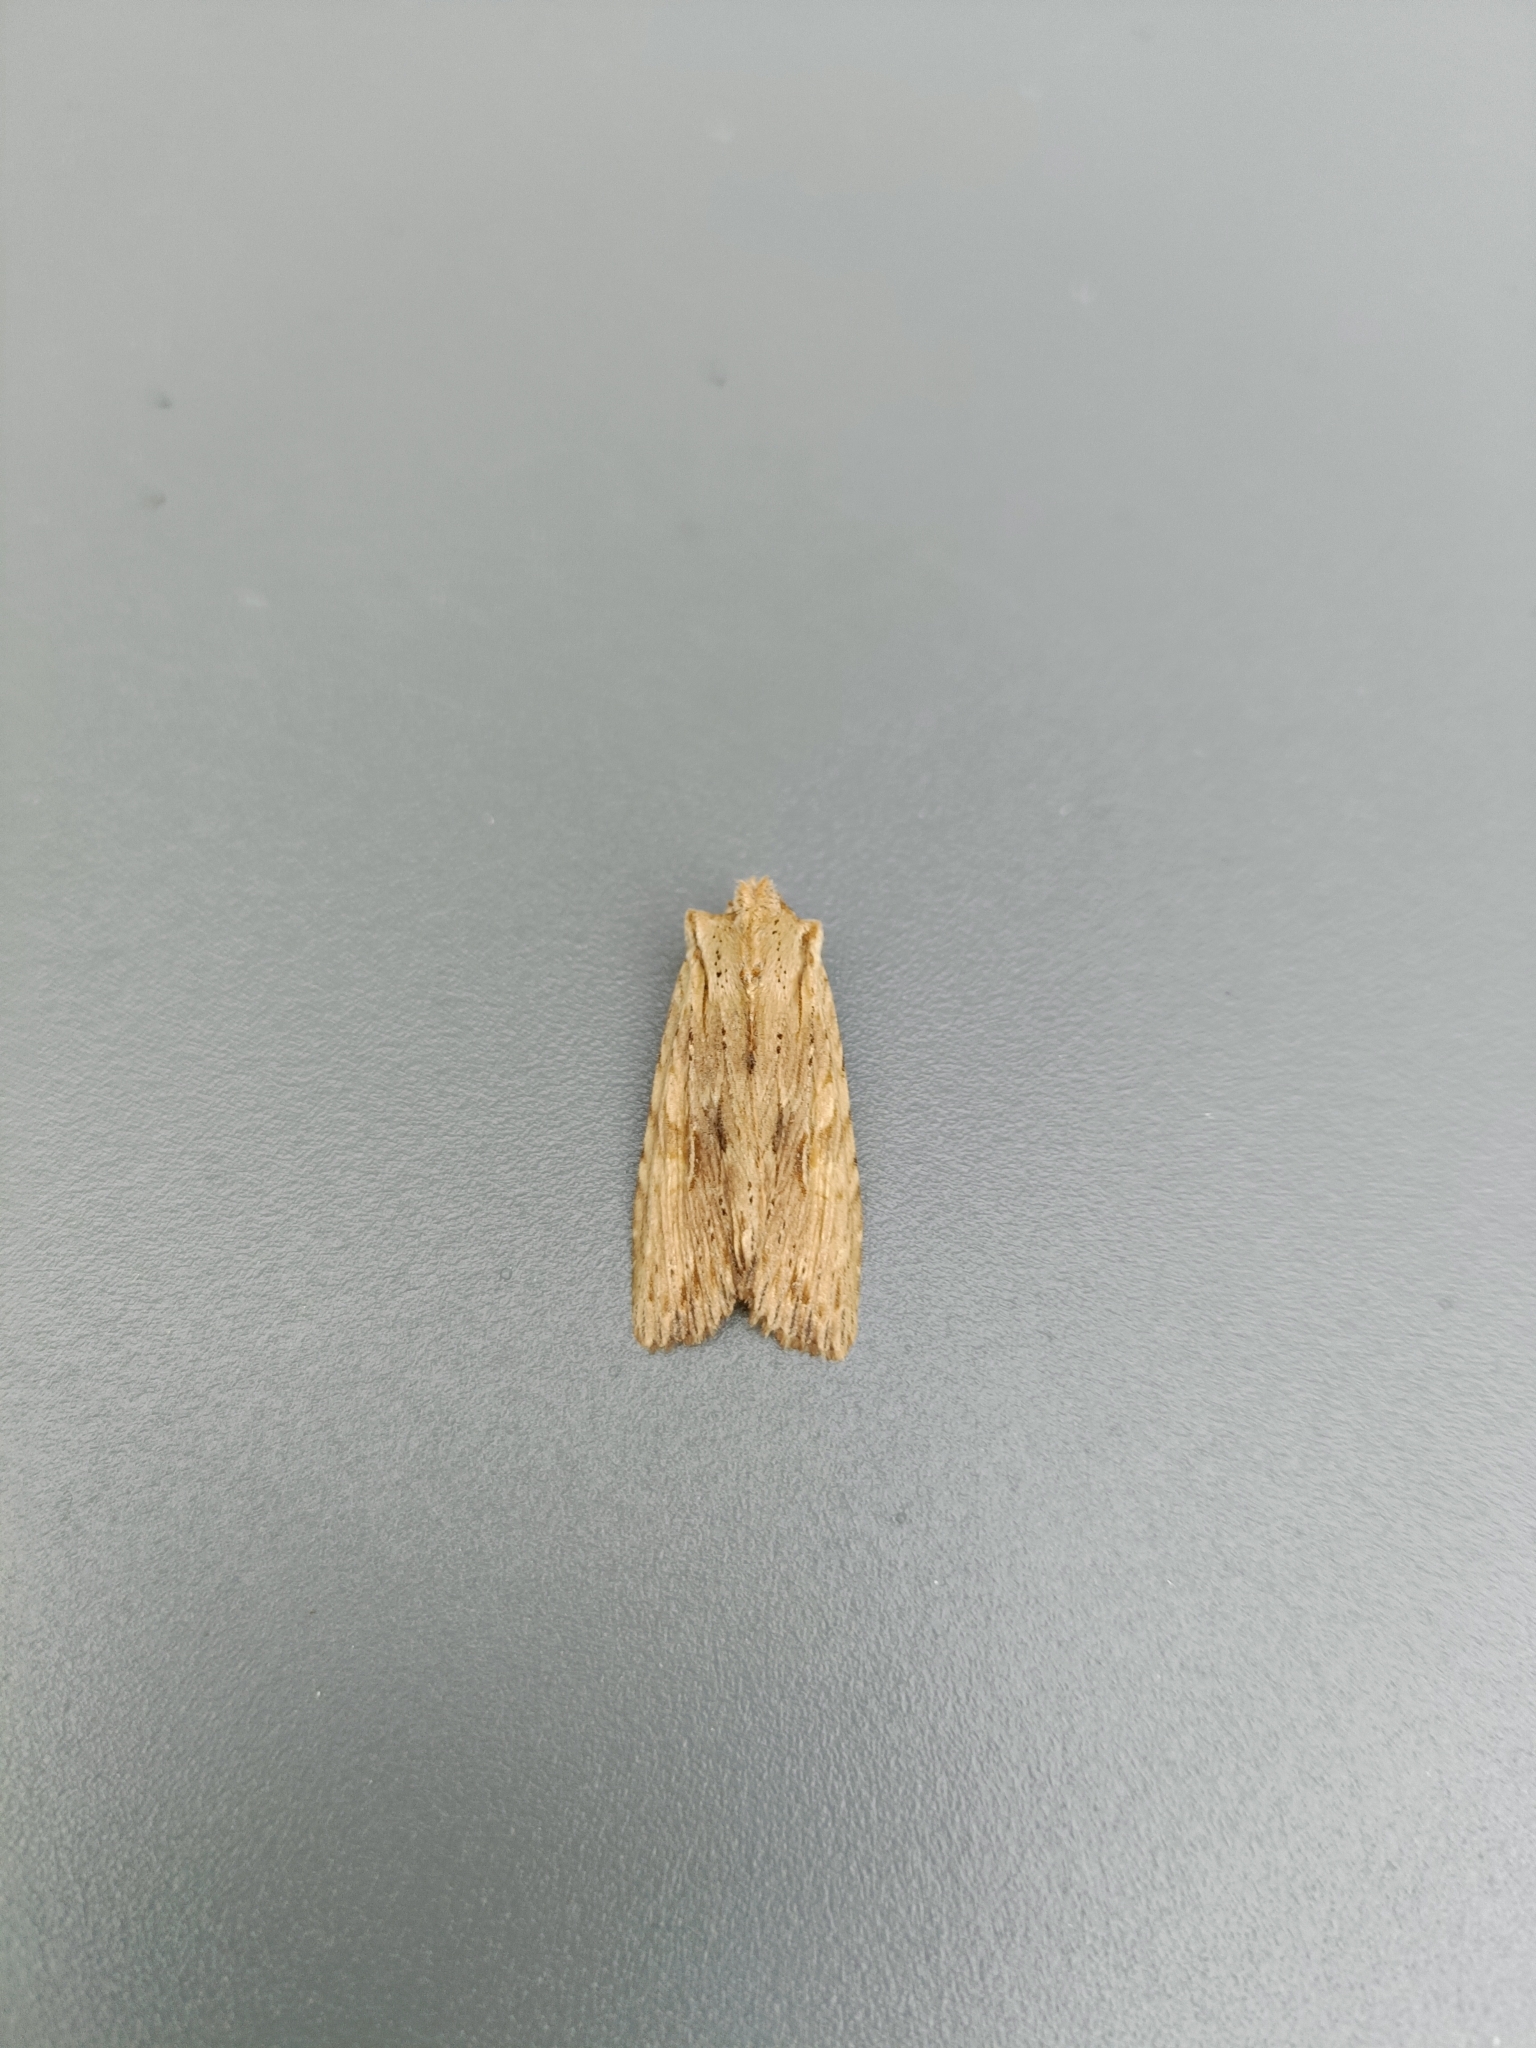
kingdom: Animalia
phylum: Arthropoda
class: Insecta
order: Lepidoptera
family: Noctuidae
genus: Lithophane
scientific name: Lithophane socia
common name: Pale pinion
